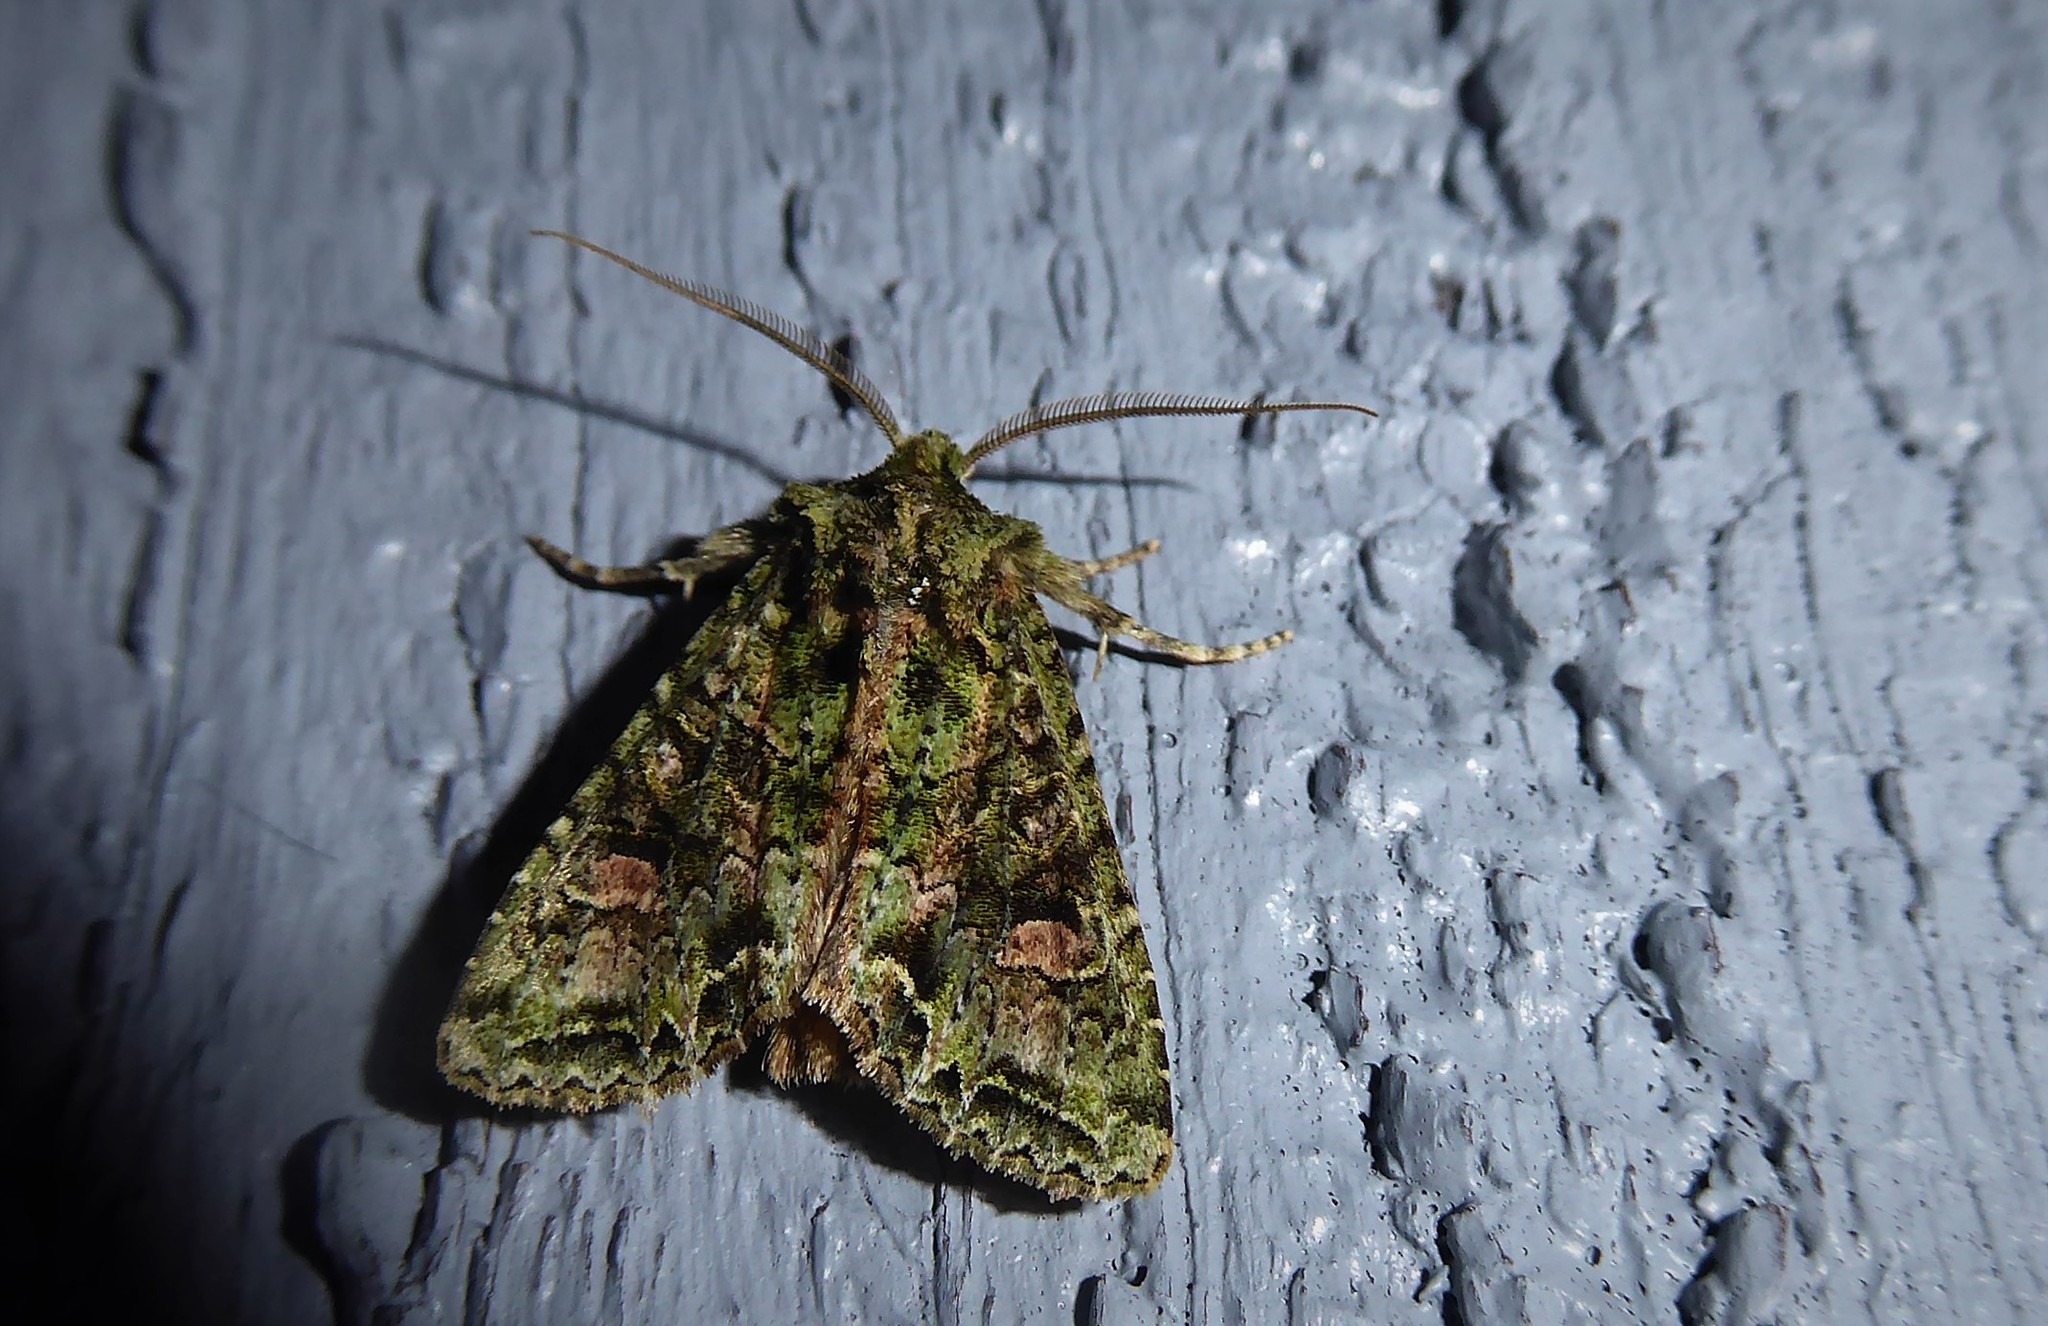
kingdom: Animalia
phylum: Arthropoda
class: Insecta
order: Lepidoptera
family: Noctuidae
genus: Ichneutica
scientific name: Ichneutica
